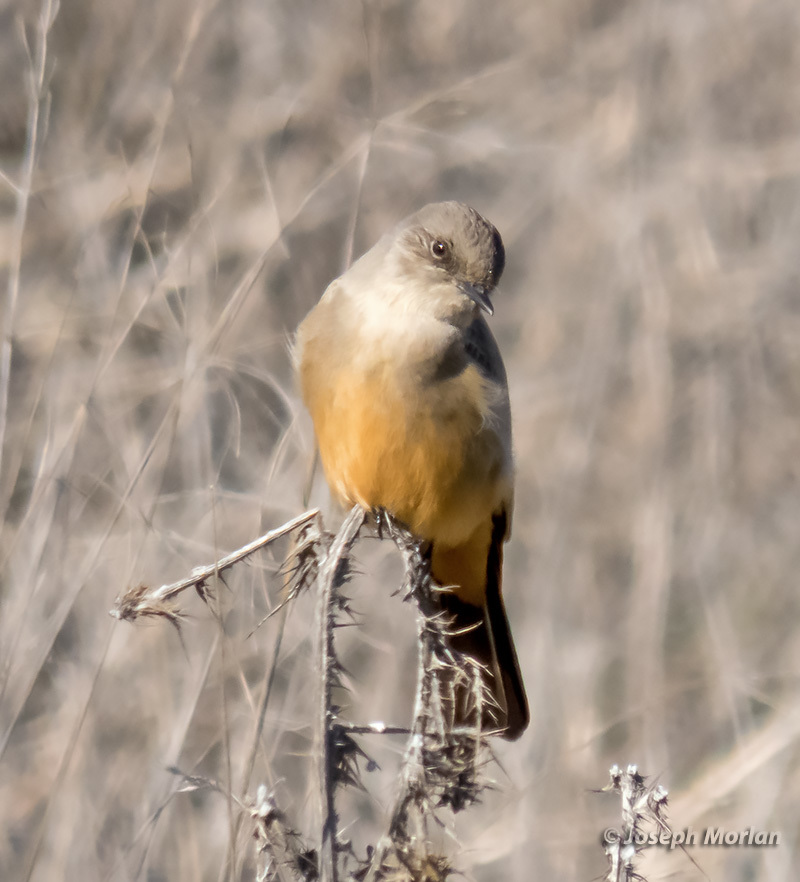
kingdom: Animalia
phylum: Chordata
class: Aves
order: Passeriformes
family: Tyrannidae
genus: Sayornis
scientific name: Sayornis saya
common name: Say's phoebe
